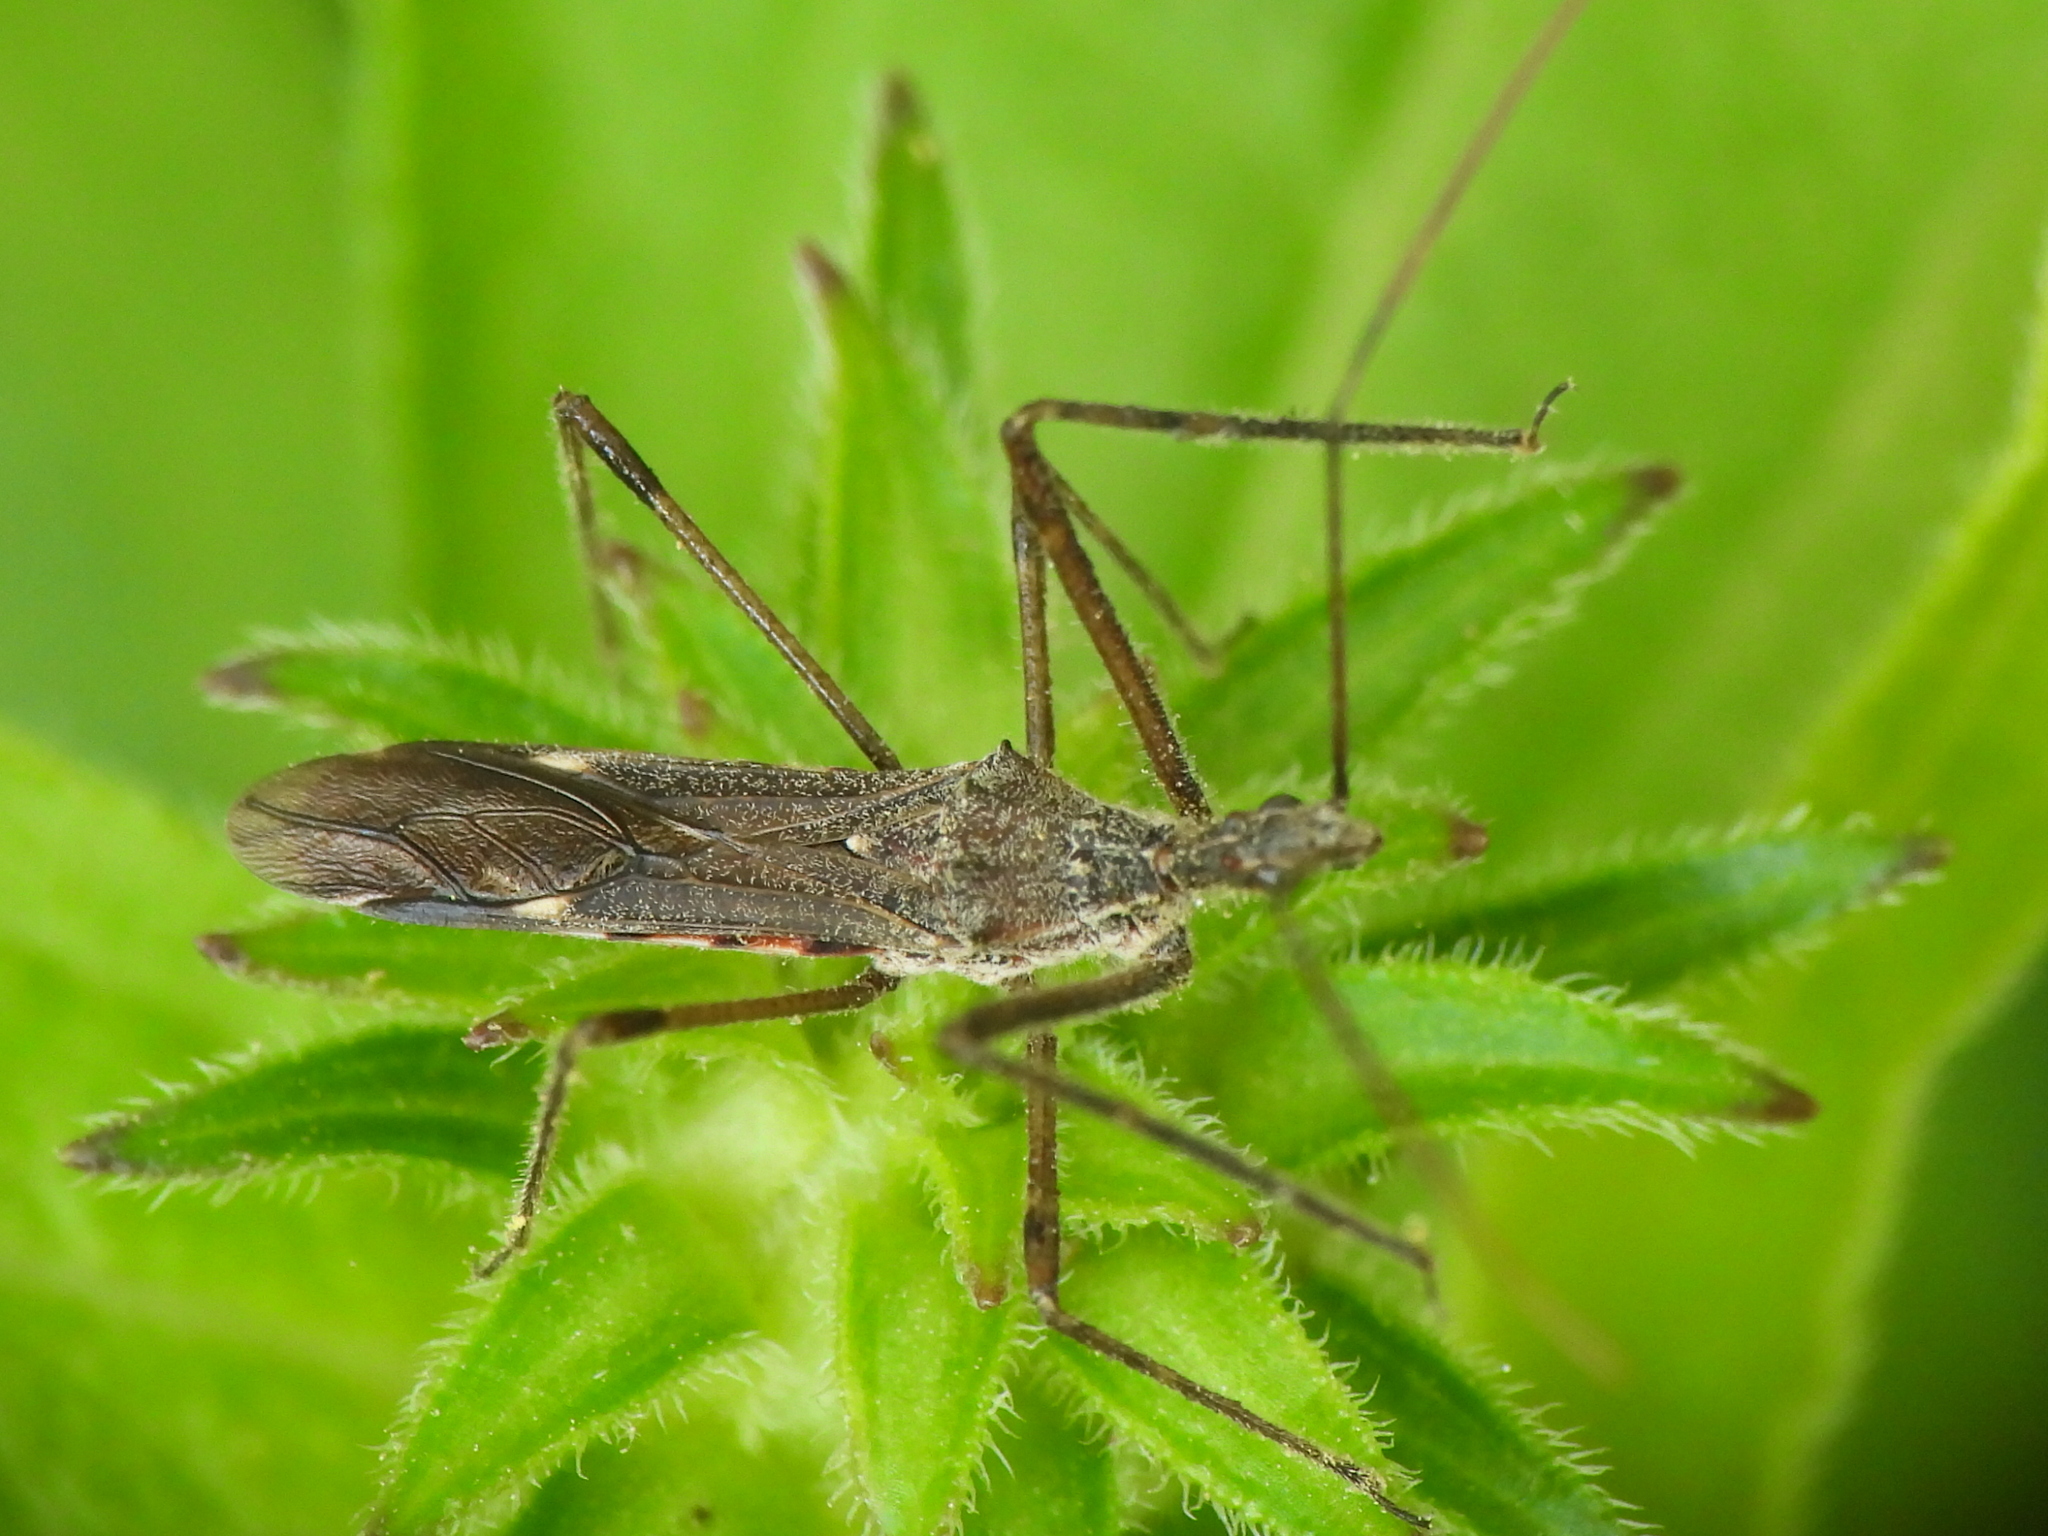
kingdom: Animalia
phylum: Arthropoda
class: Insecta
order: Hemiptera
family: Reduviidae
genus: Zelus
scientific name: Zelus tetracanthus
